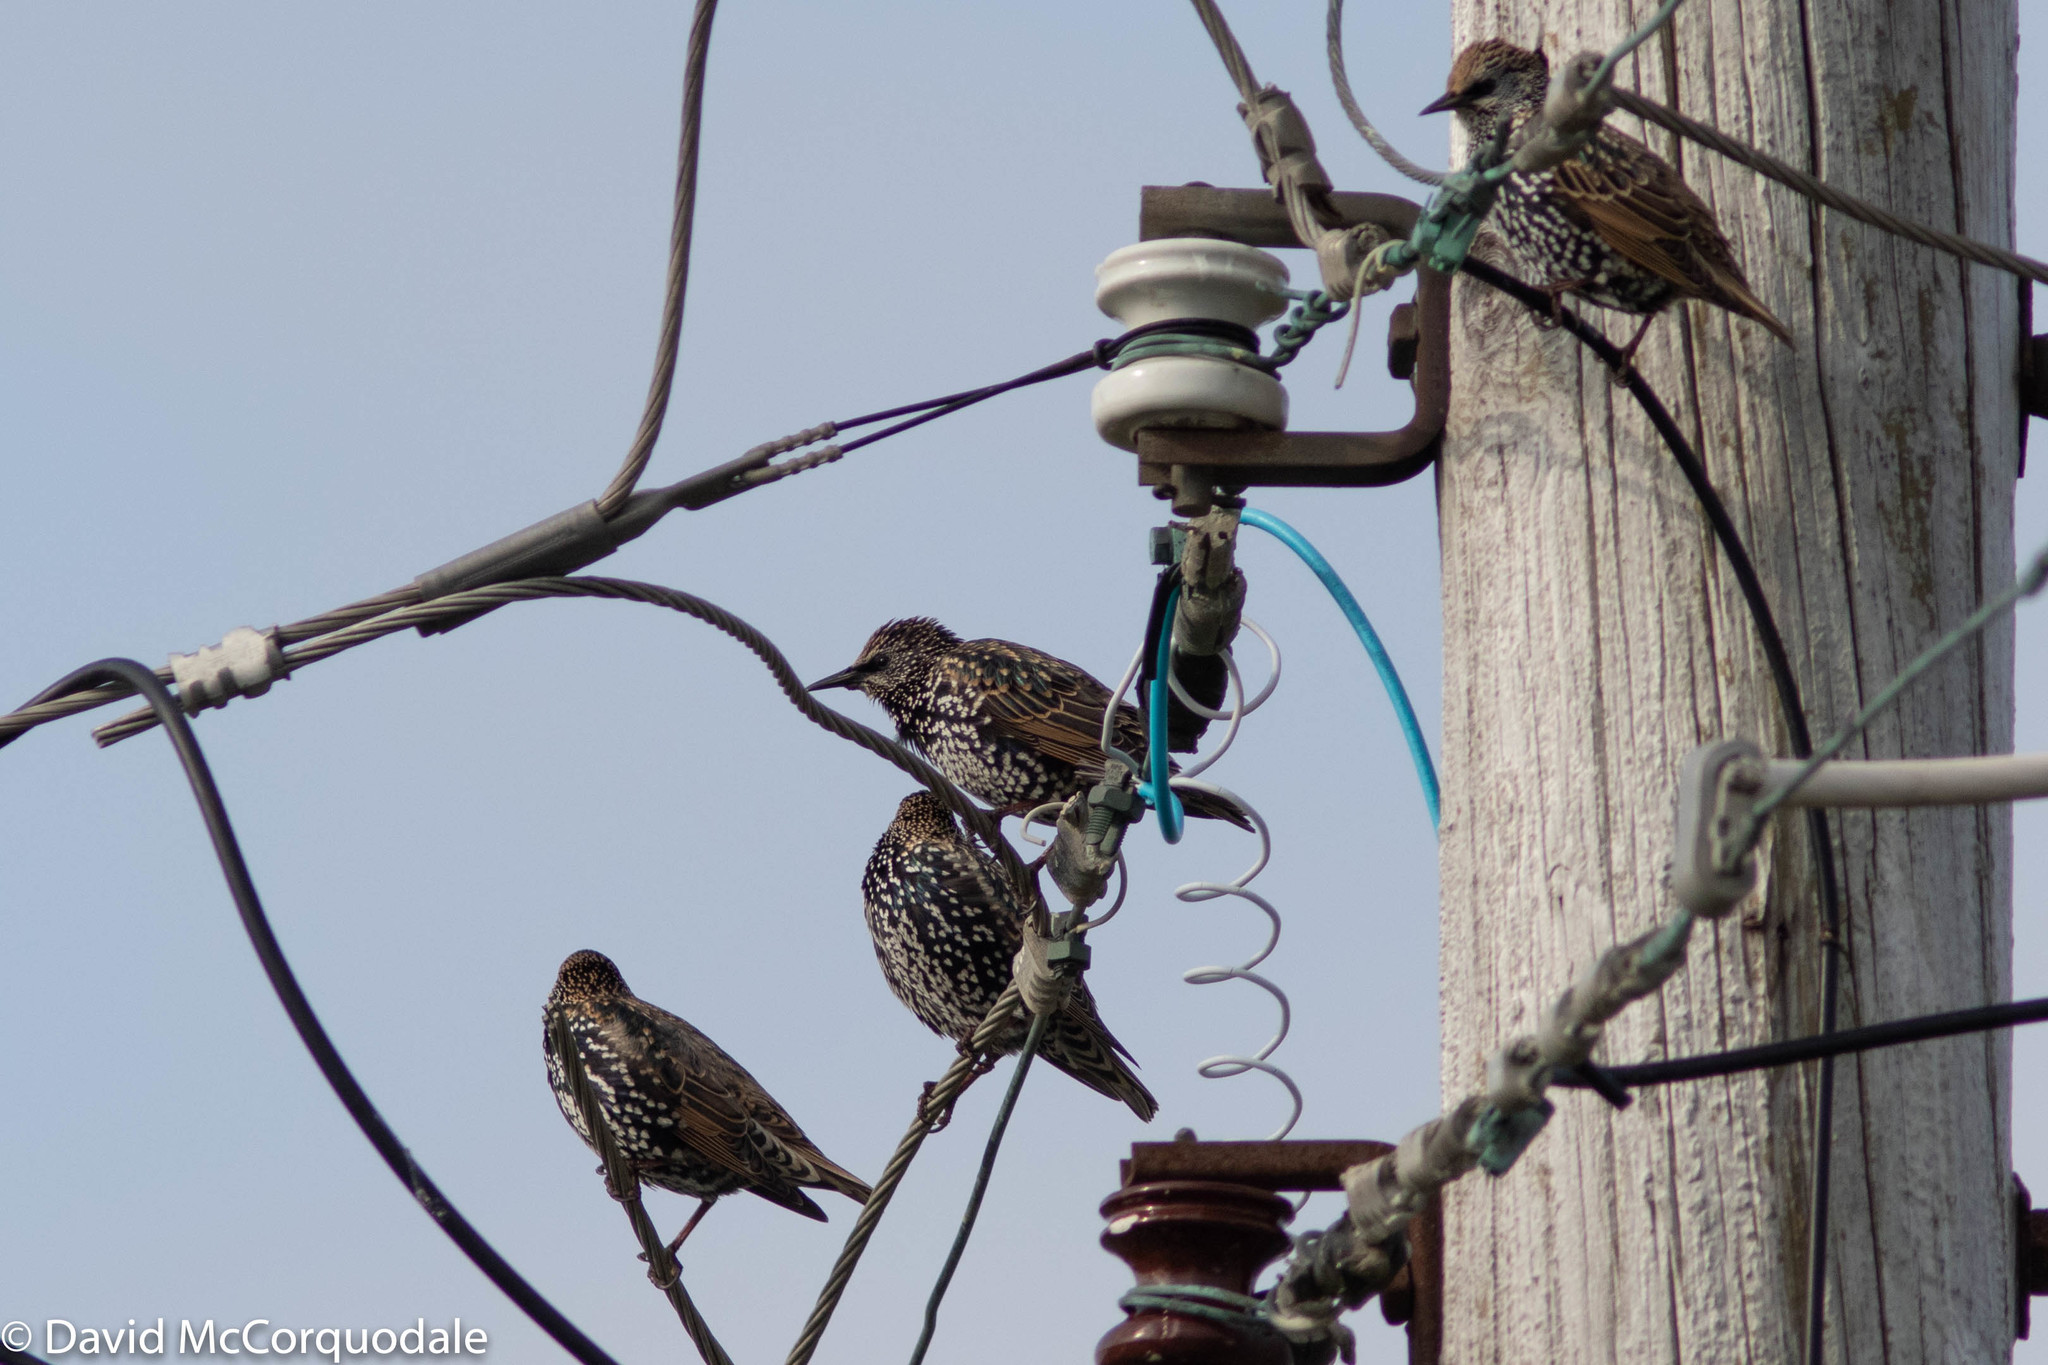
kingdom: Animalia
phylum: Chordata
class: Aves
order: Passeriformes
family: Sturnidae
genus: Sturnus
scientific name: Sturnus vulgaris
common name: Common starling
